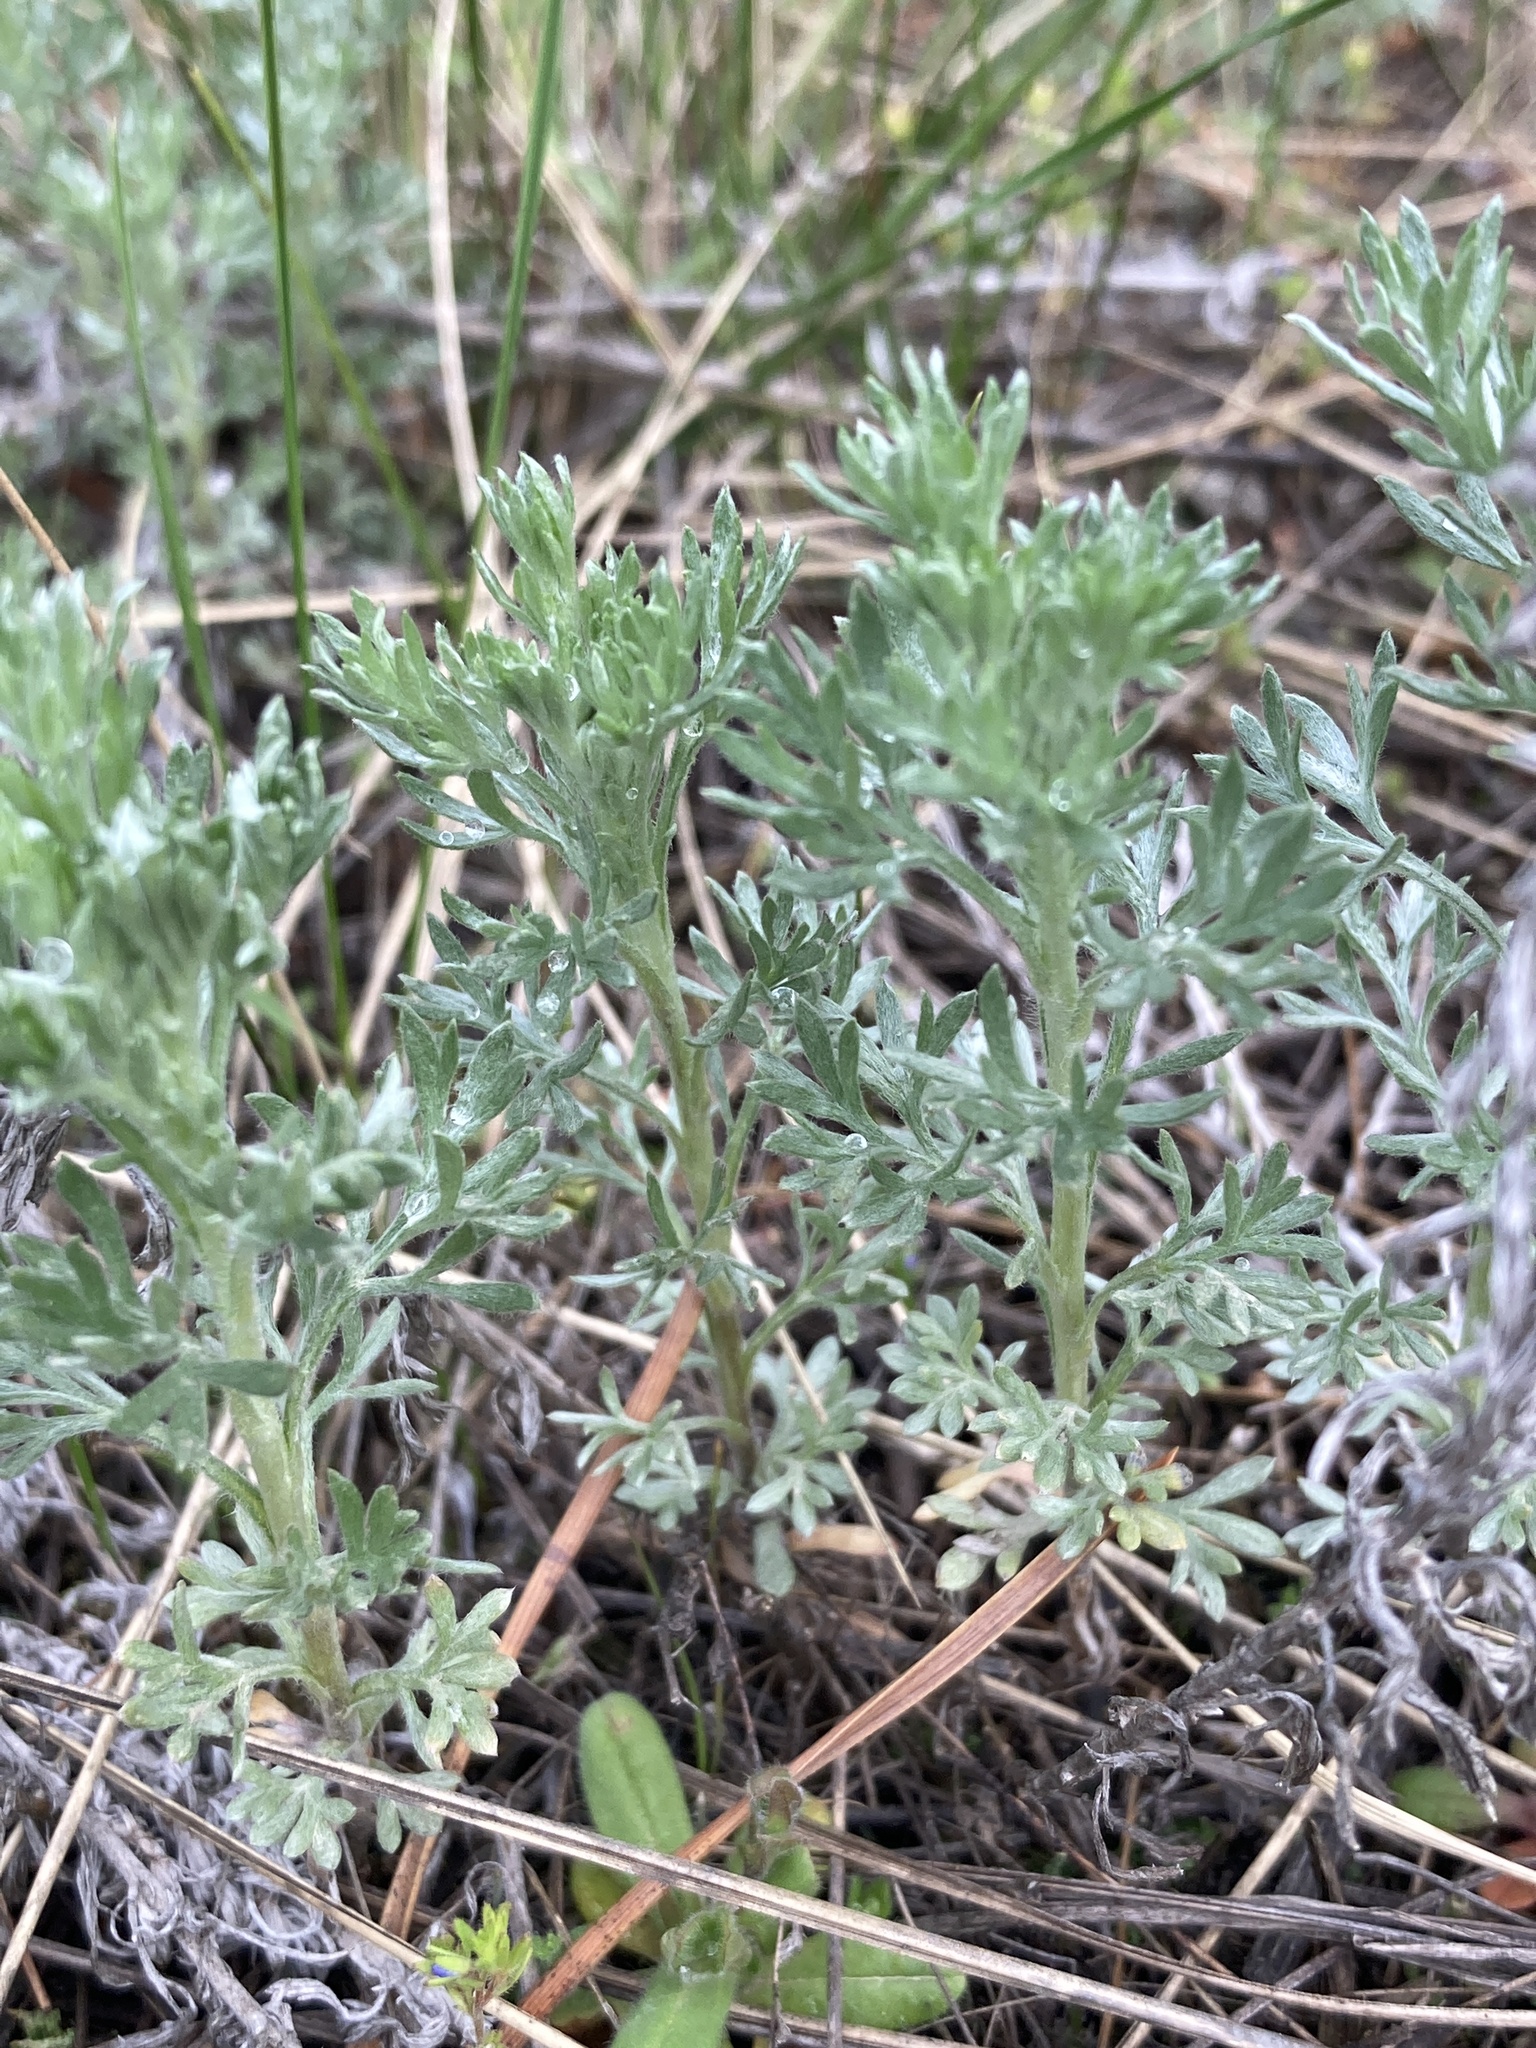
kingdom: Plantae
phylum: Tracheophyta
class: Magnoliopsida
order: Asterales
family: Asteraceae
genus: Artemisia
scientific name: Artemisia austriaca
